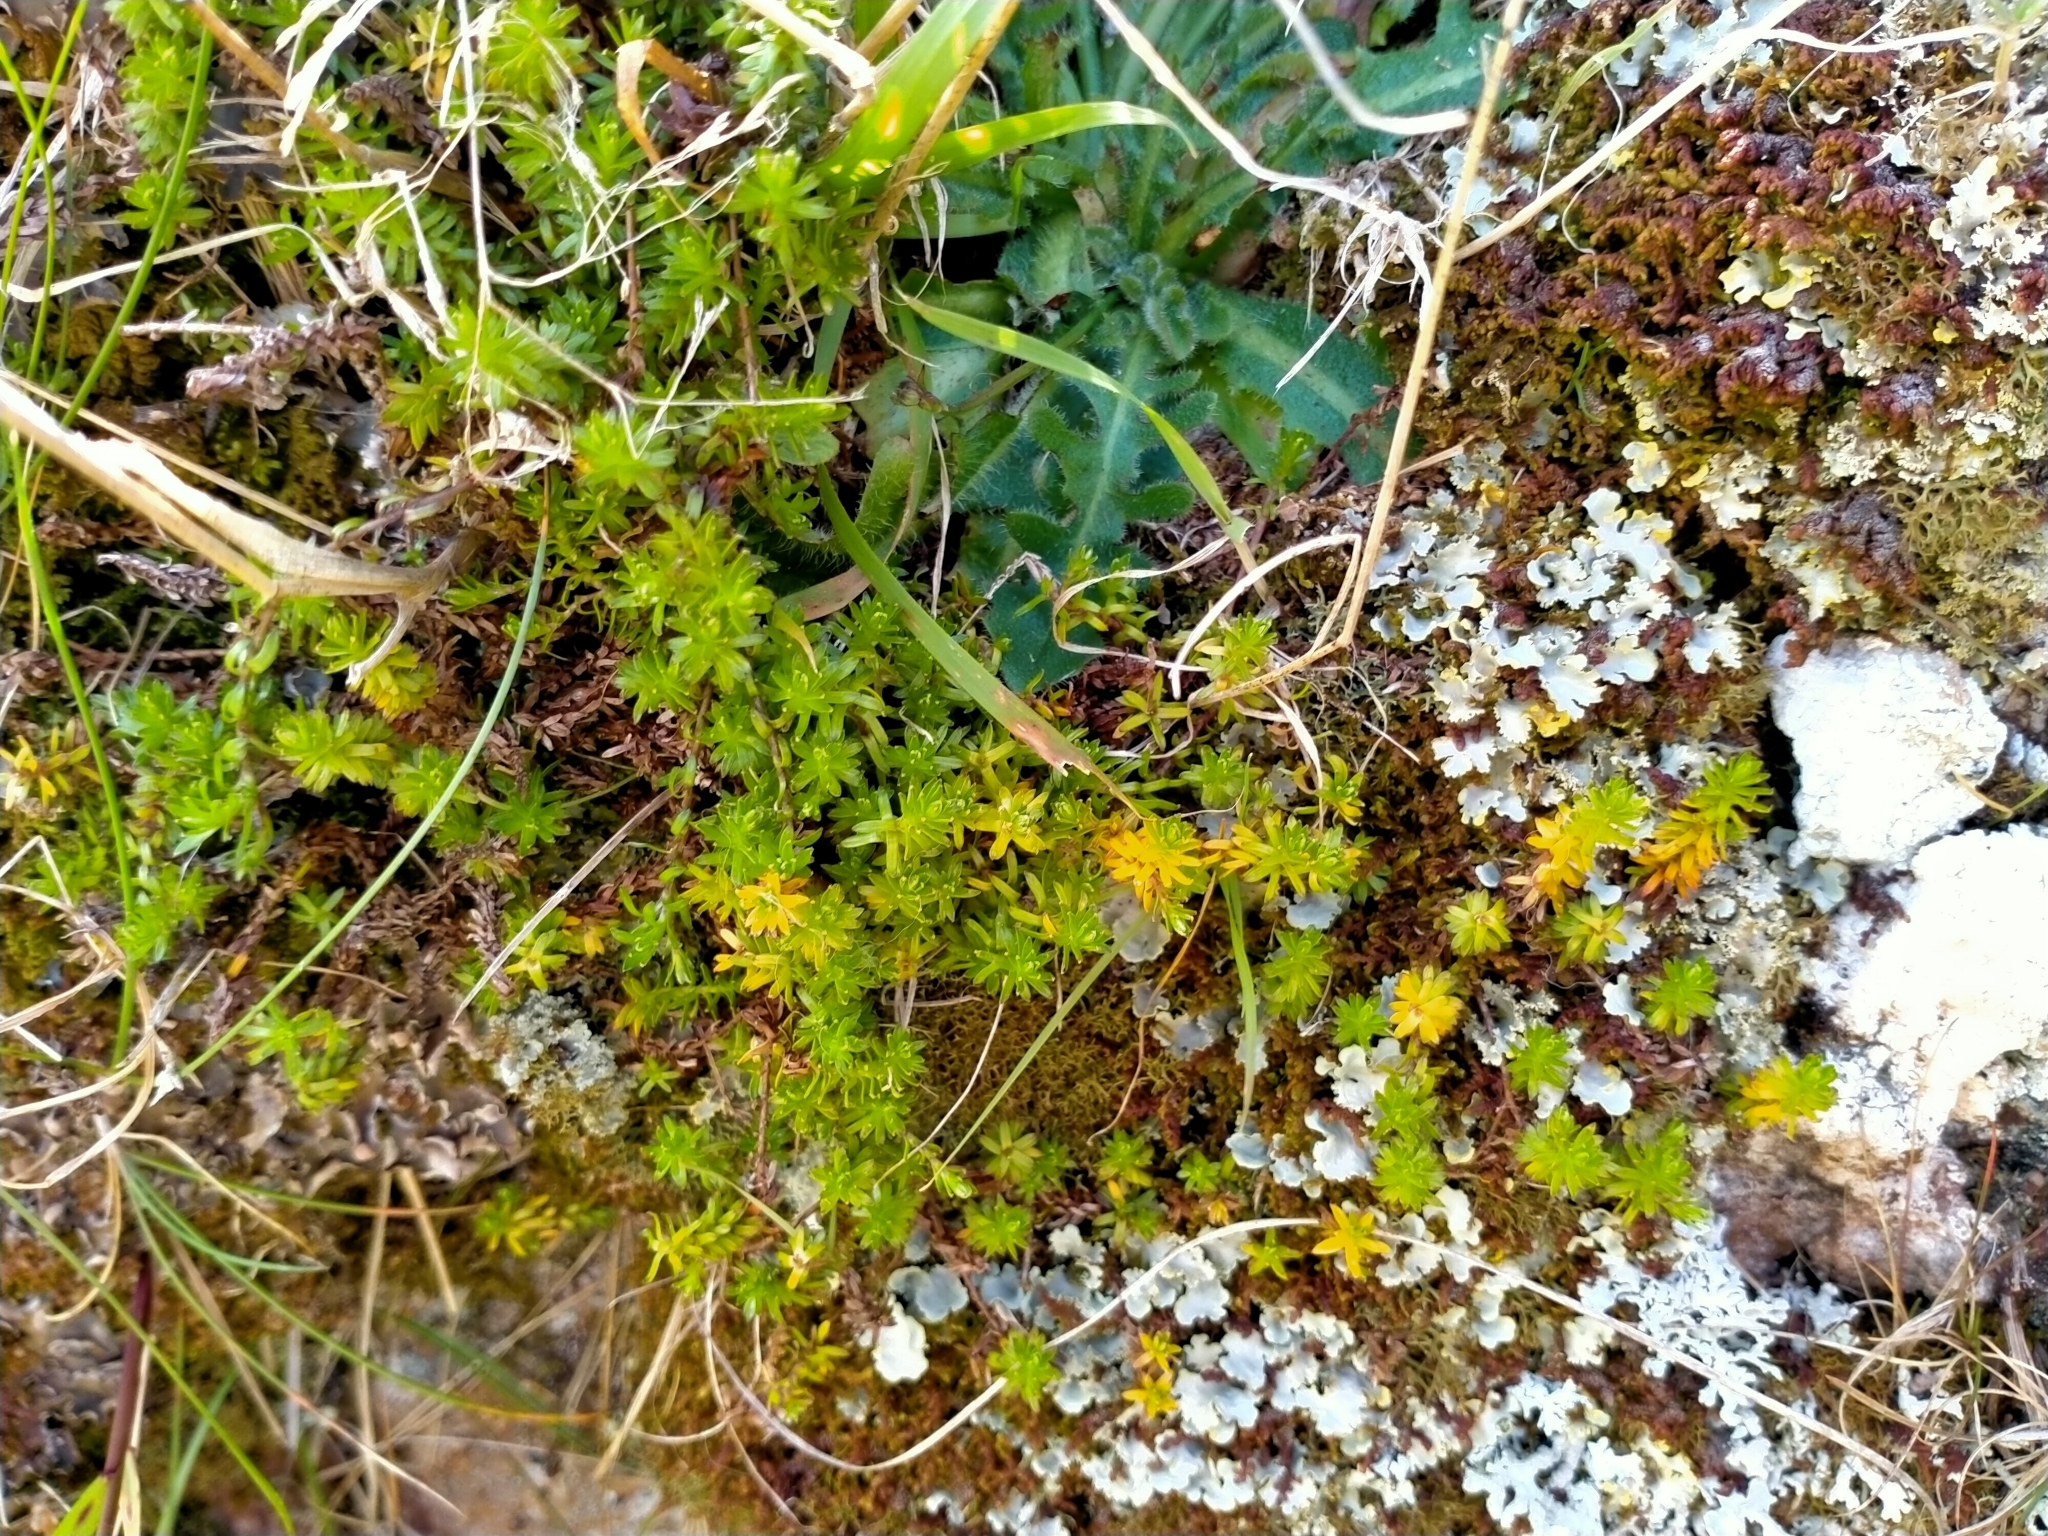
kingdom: Plantae
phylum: Tracheophyta
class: Magnoliopsida
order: Asterales
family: Asteraceae
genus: Raoulia
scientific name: Raoulia glabra
